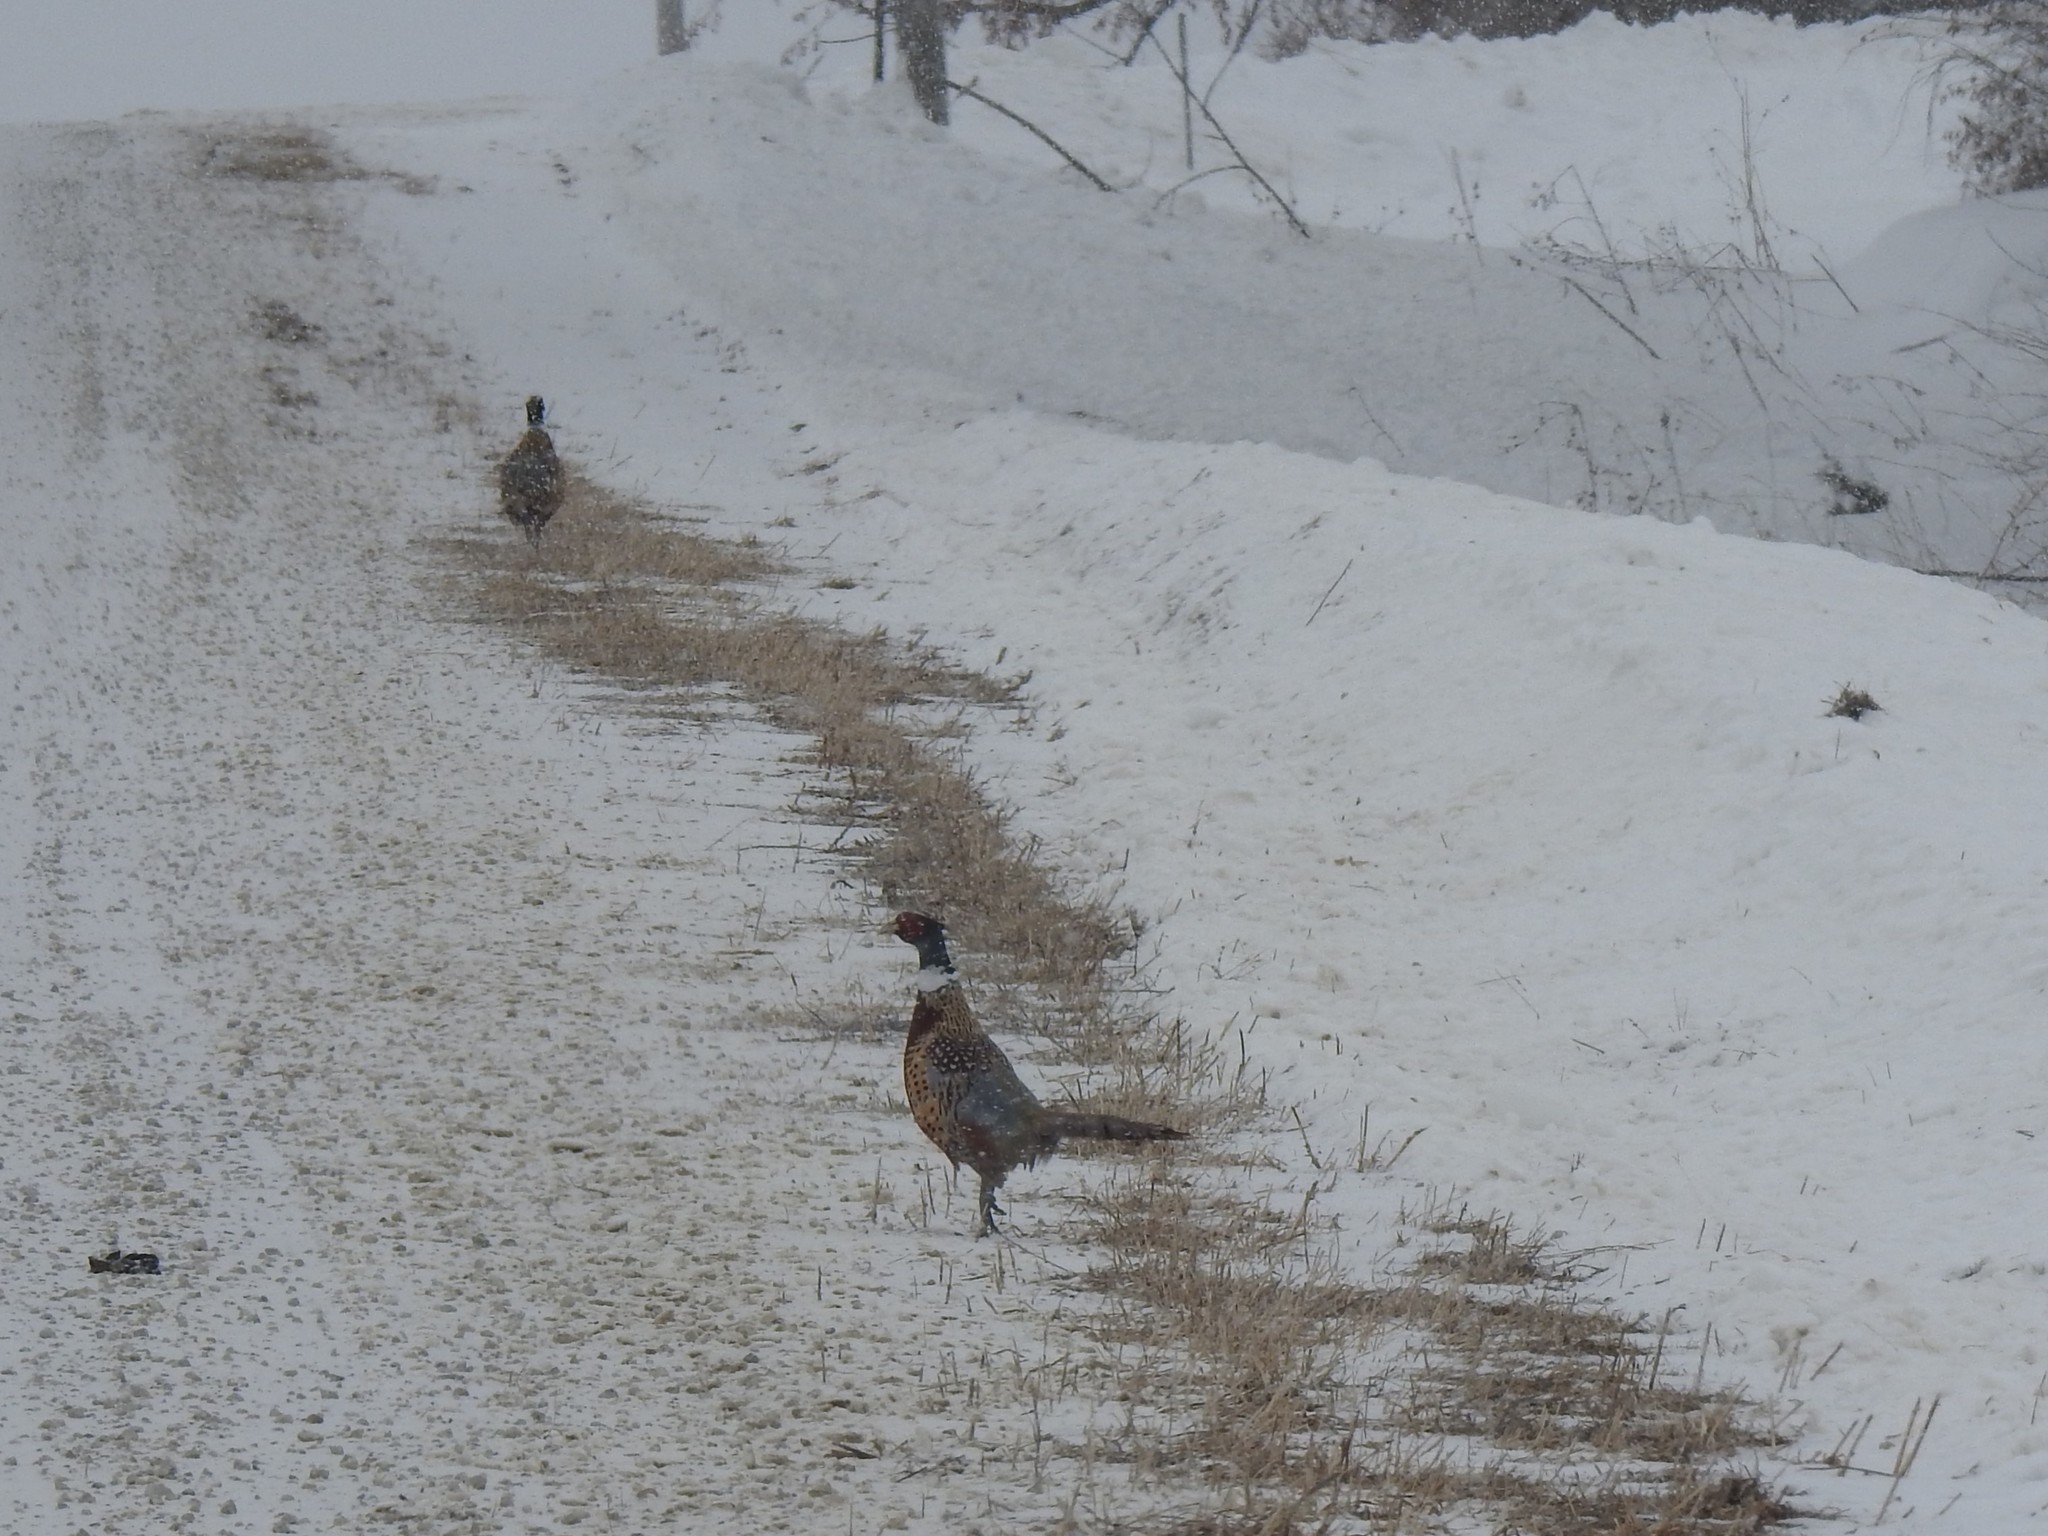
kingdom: Animalia
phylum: Chordata
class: Aves
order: Galliformes
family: Phasianidae
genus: Phasianus
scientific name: Phasianus colchicus
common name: Common pheasant
